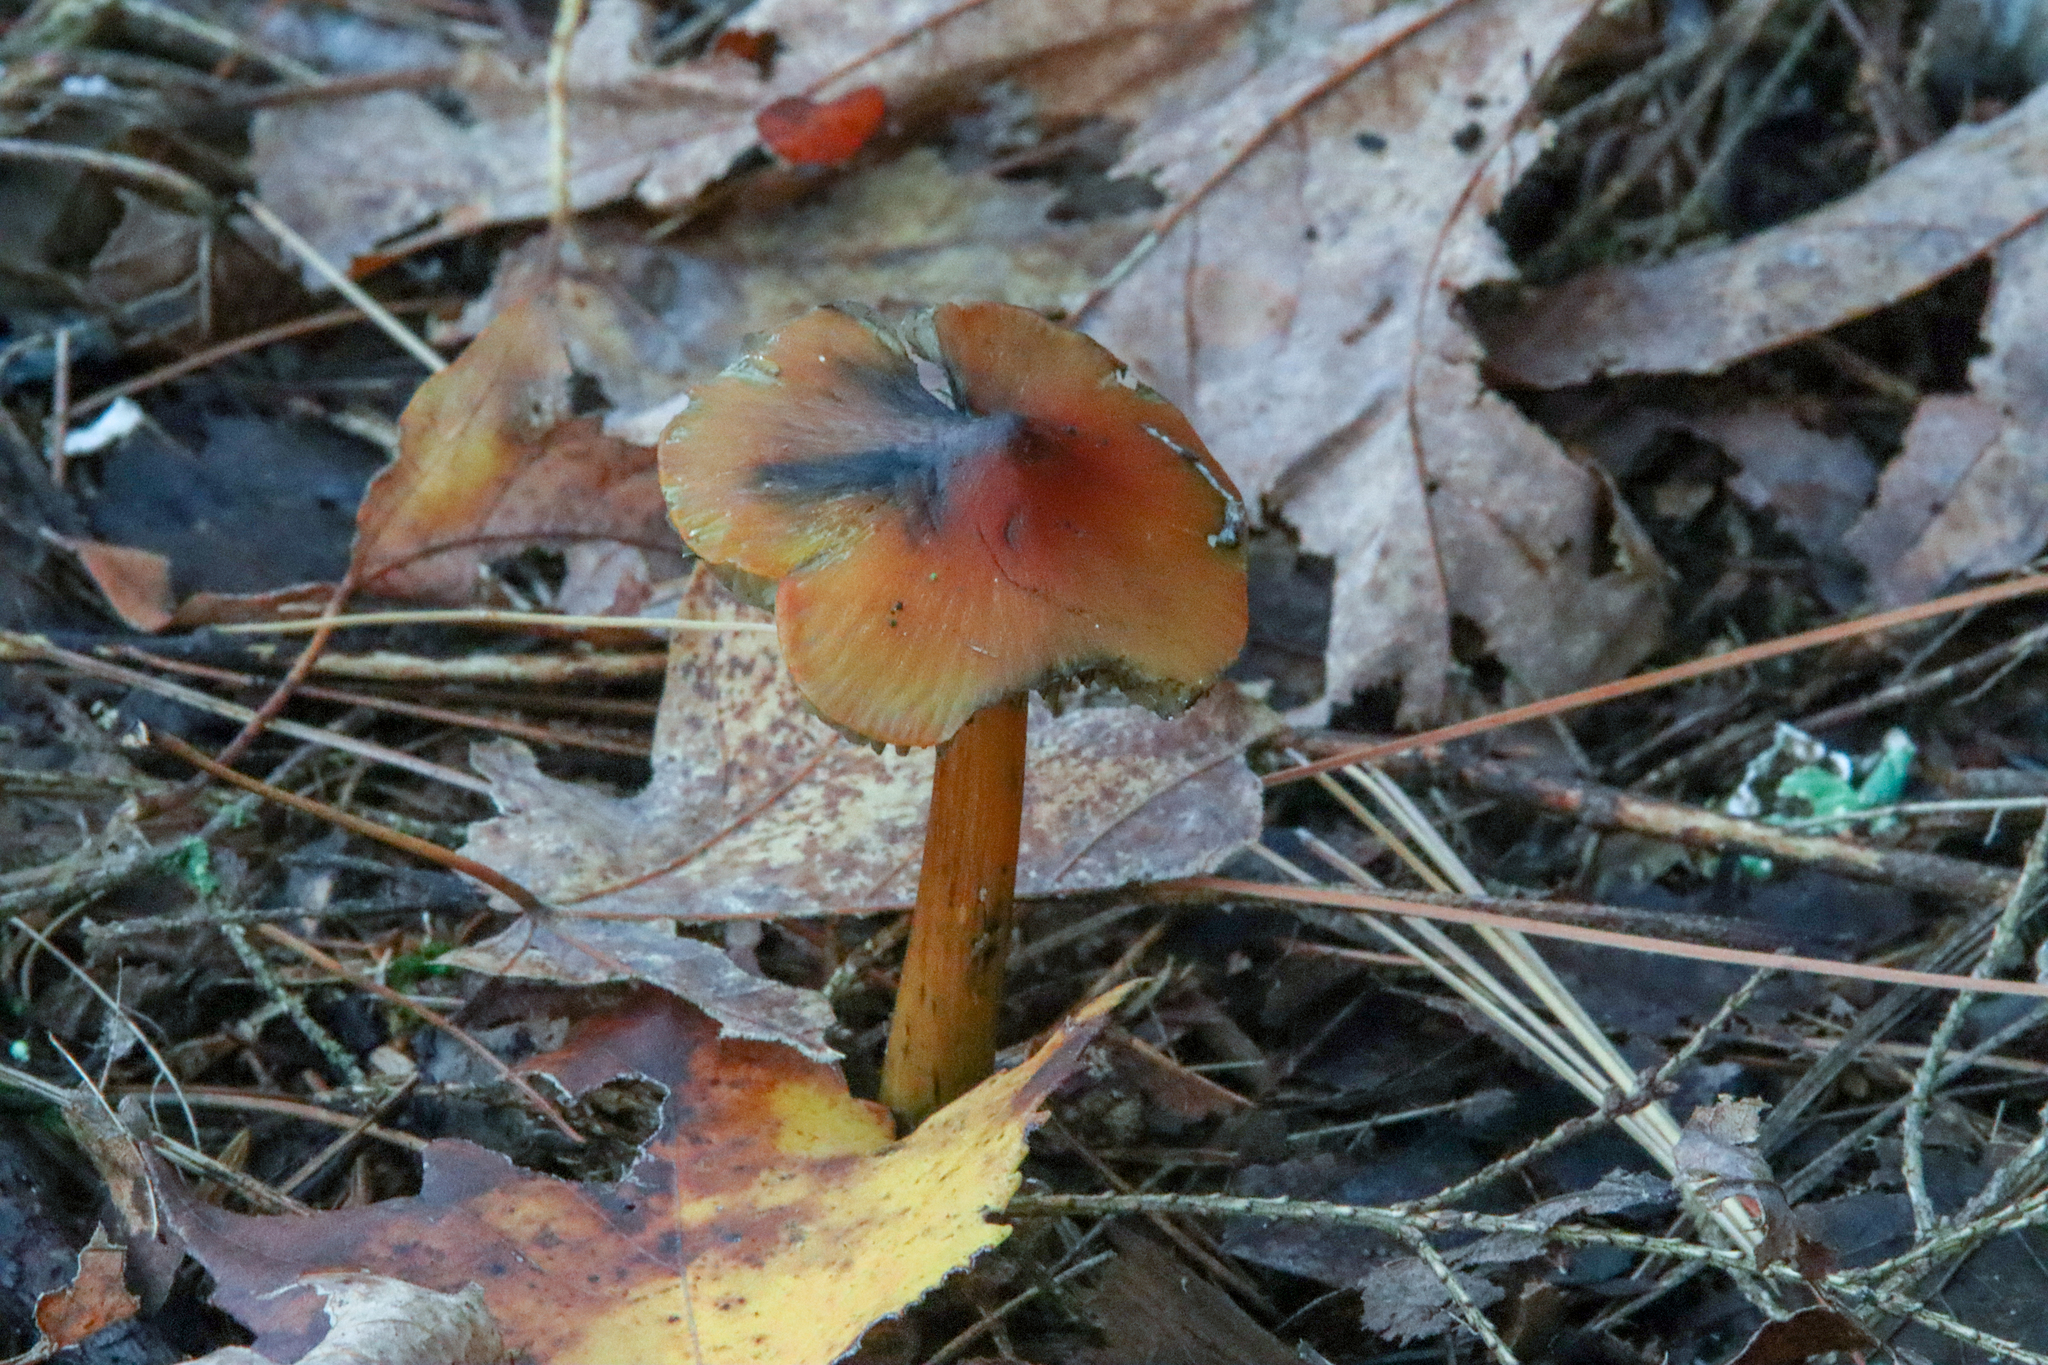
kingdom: Fungi
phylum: Basidiomycota
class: Agaricomycetes
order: Agaricales
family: Hygrophoraceae
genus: Hygrocybe
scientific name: Hygrocybe conica
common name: Blackening wax-cap
